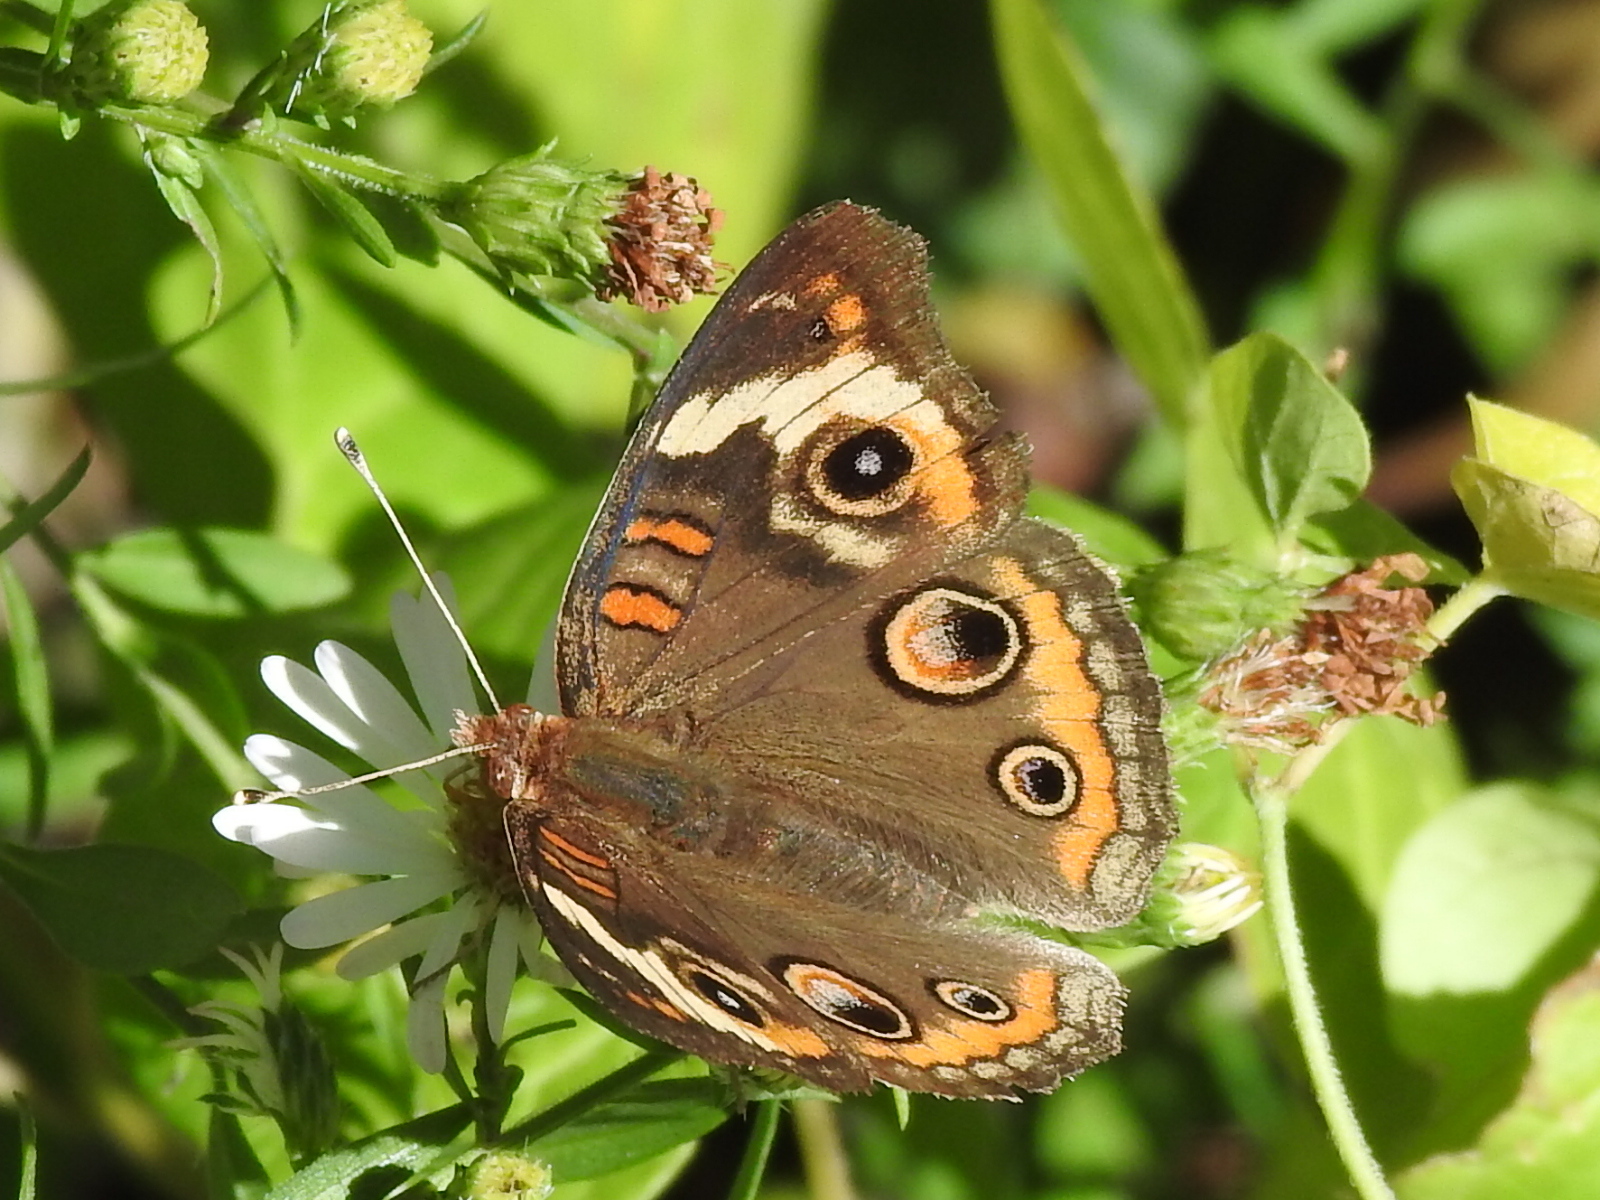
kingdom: Animalia
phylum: Arthropoda
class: Insecta
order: Lepidoptera
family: Nymphalidae
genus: Junonia
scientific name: Junonia coenia
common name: Common buckeye
